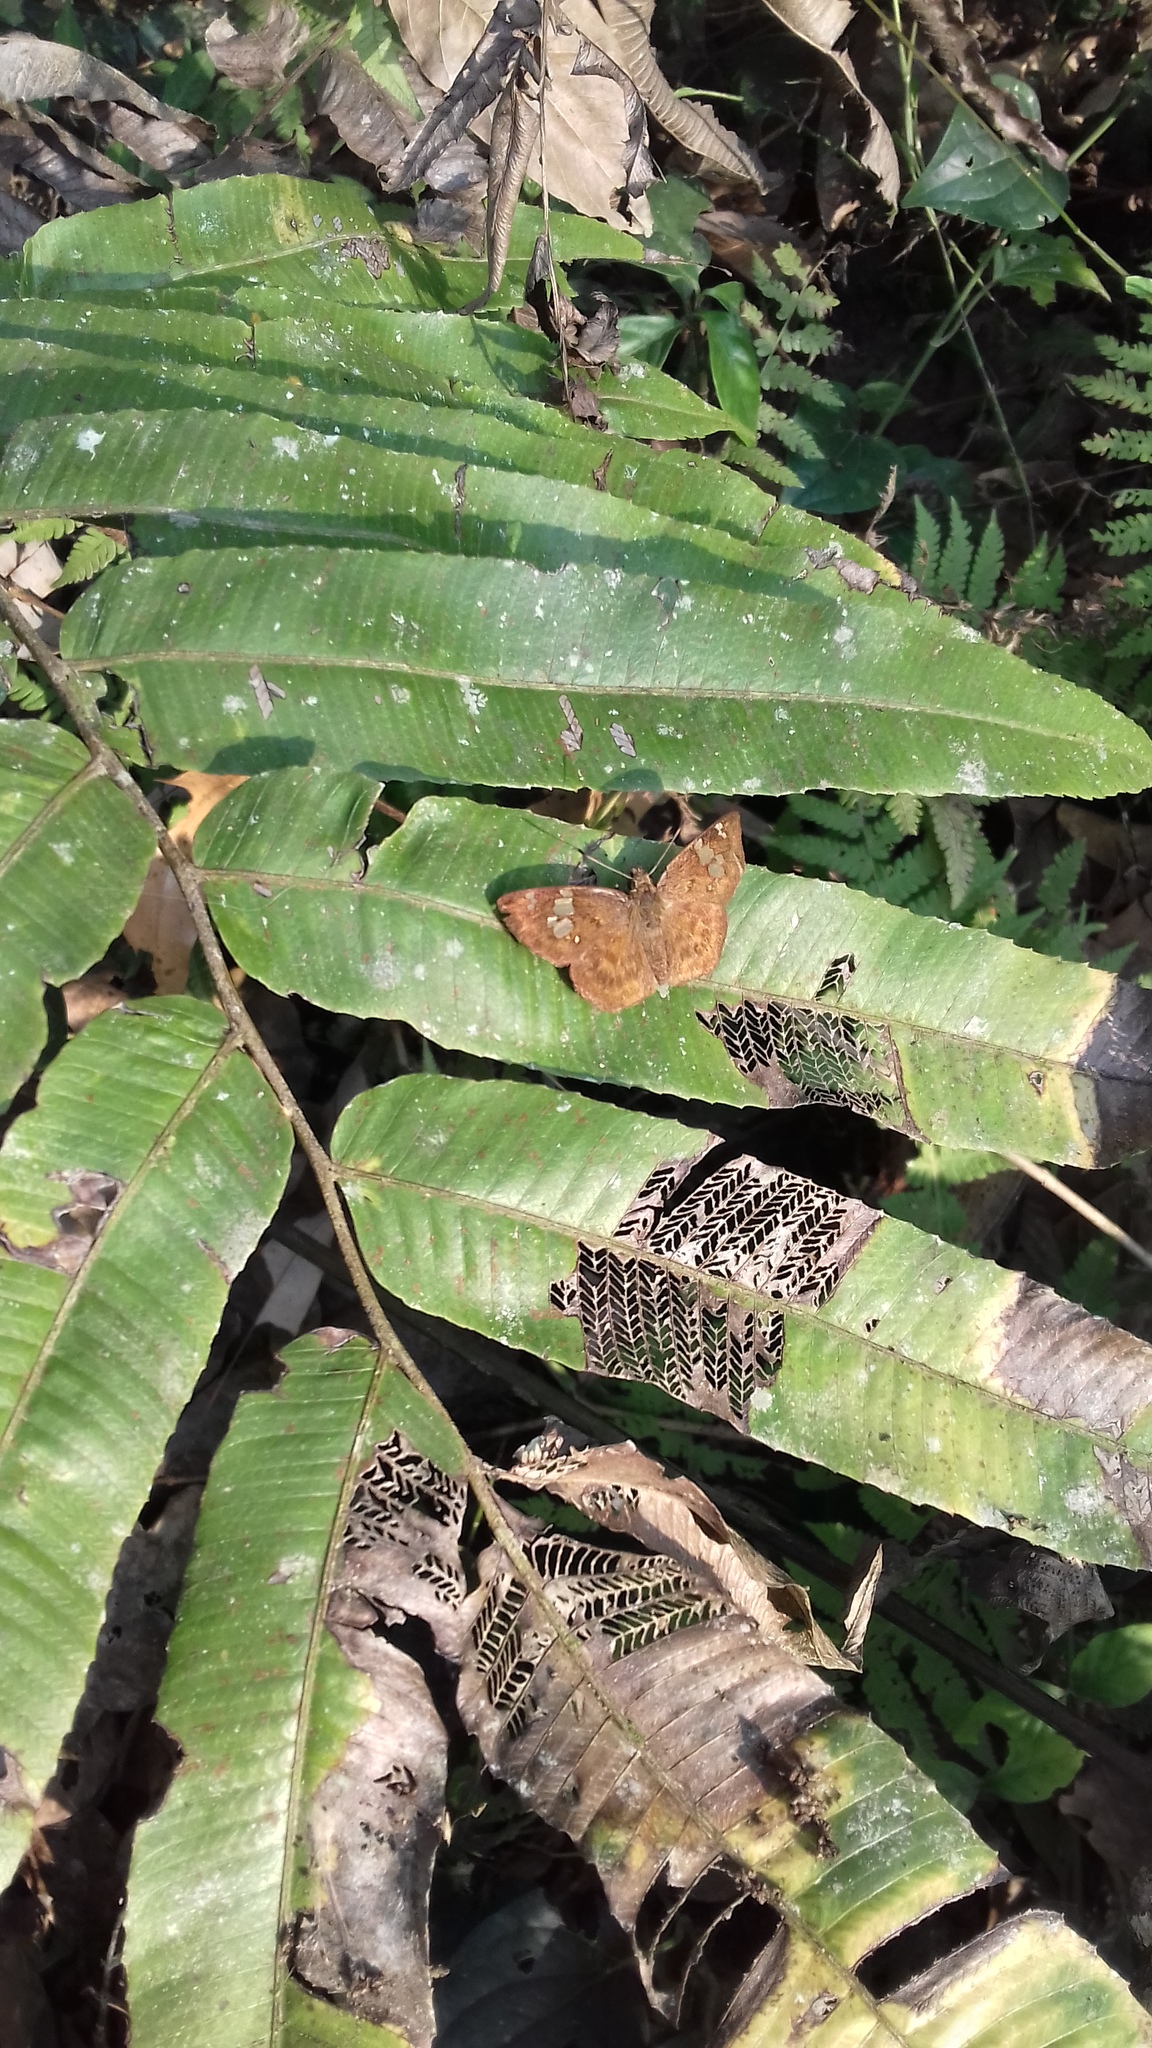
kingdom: Animalia
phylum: Arthropoda
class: Insecta
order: Lepidoptera
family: Hesperiidae
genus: Pseudocoladenia
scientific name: Pseudocoladenia dan
